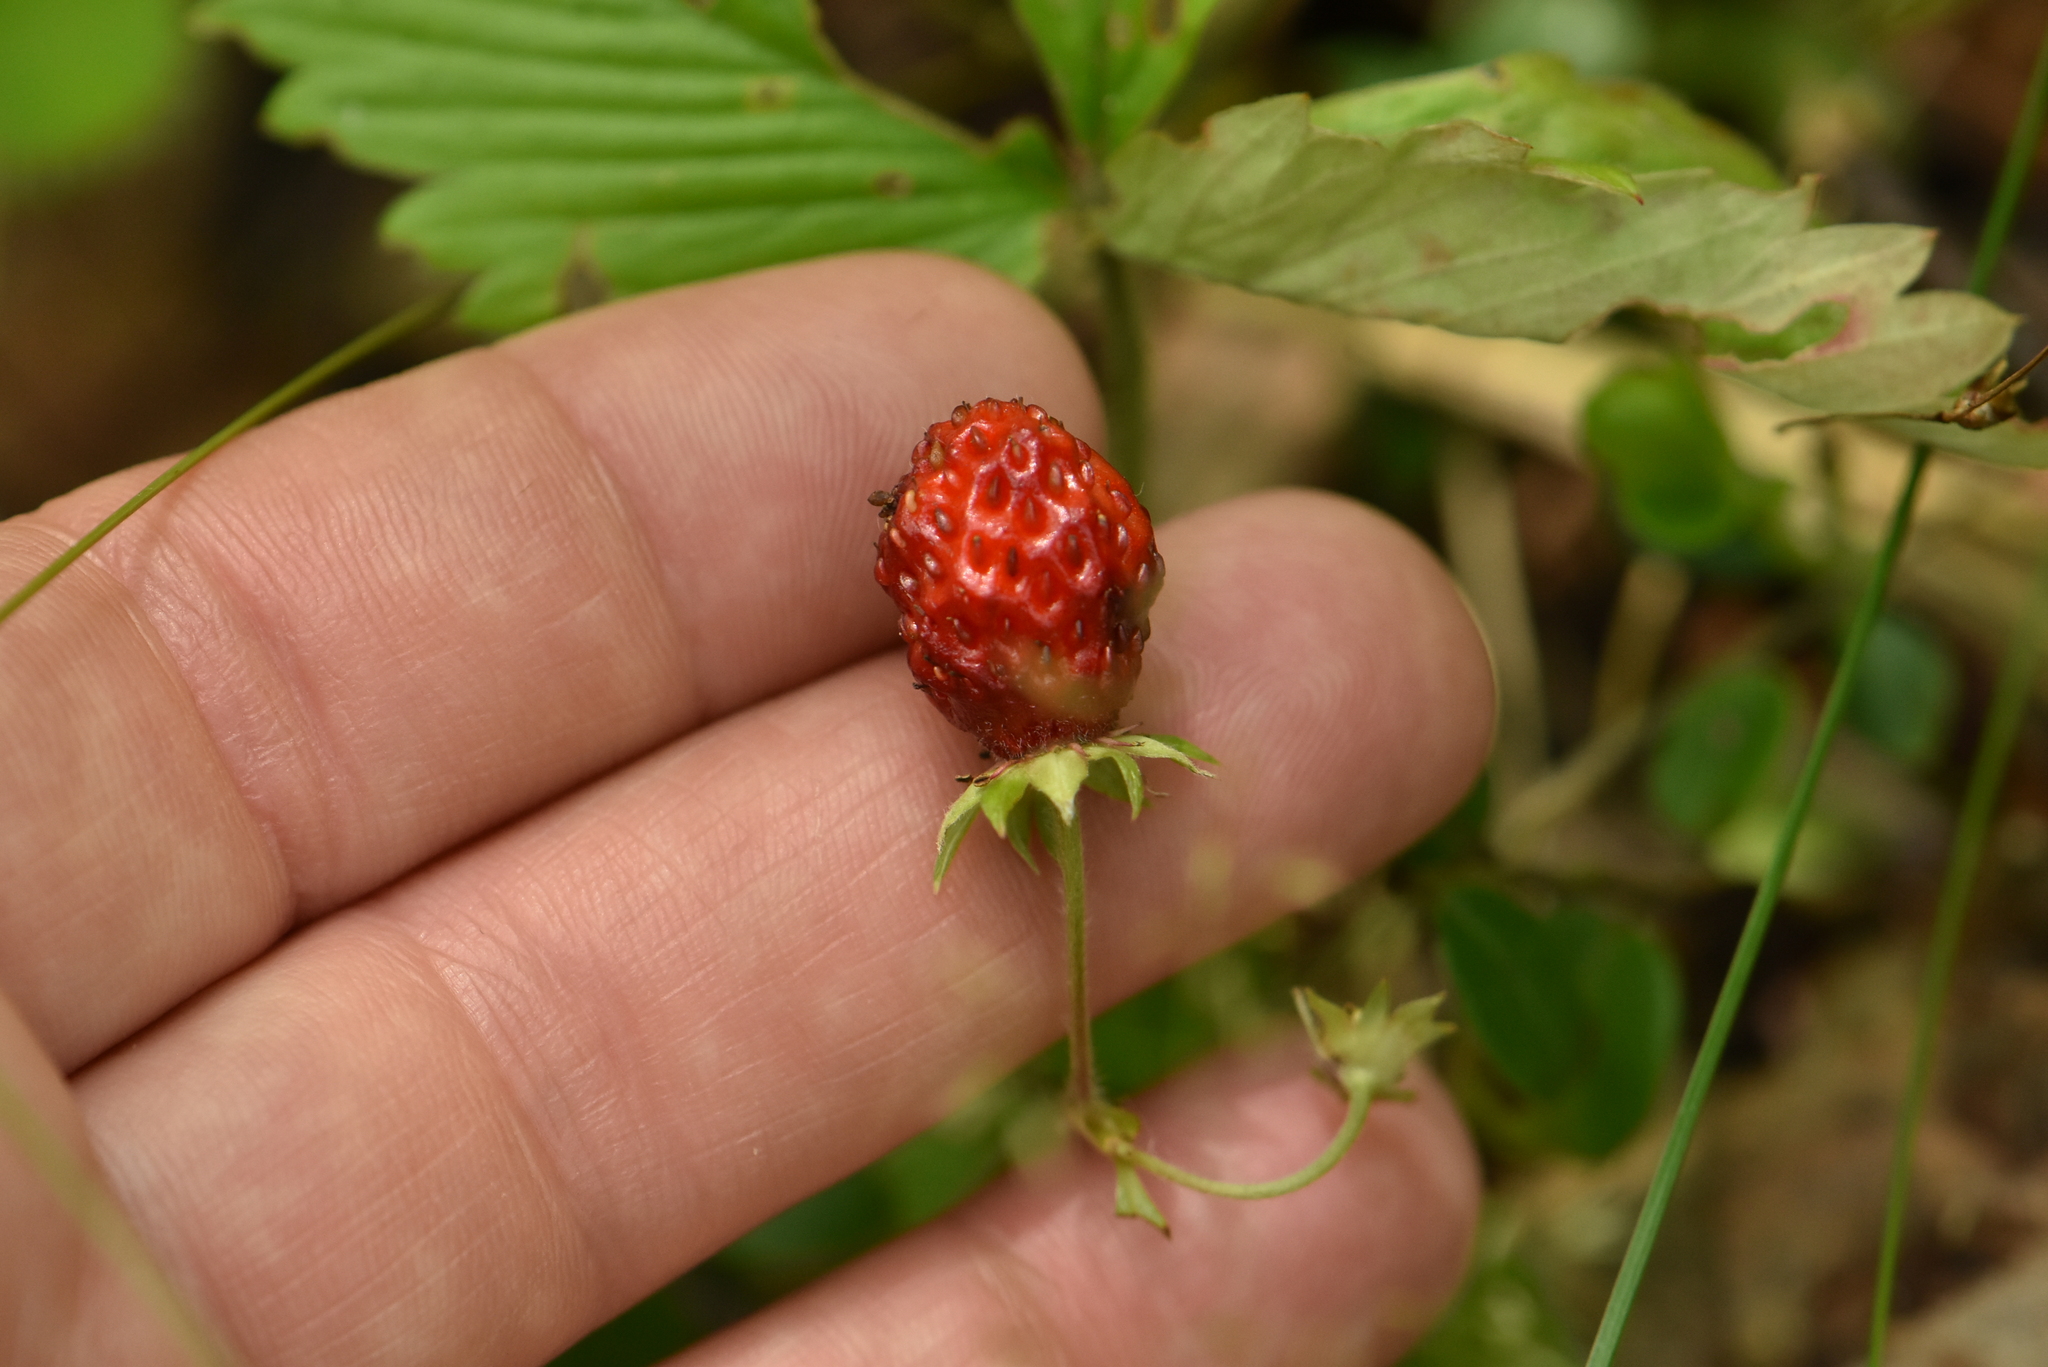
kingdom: Plantae
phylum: Tracheophyta
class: Magnoliopsida
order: Rosales
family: Rosaceae
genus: Fragaria
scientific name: Fragaria vesca
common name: Wild strawberry
